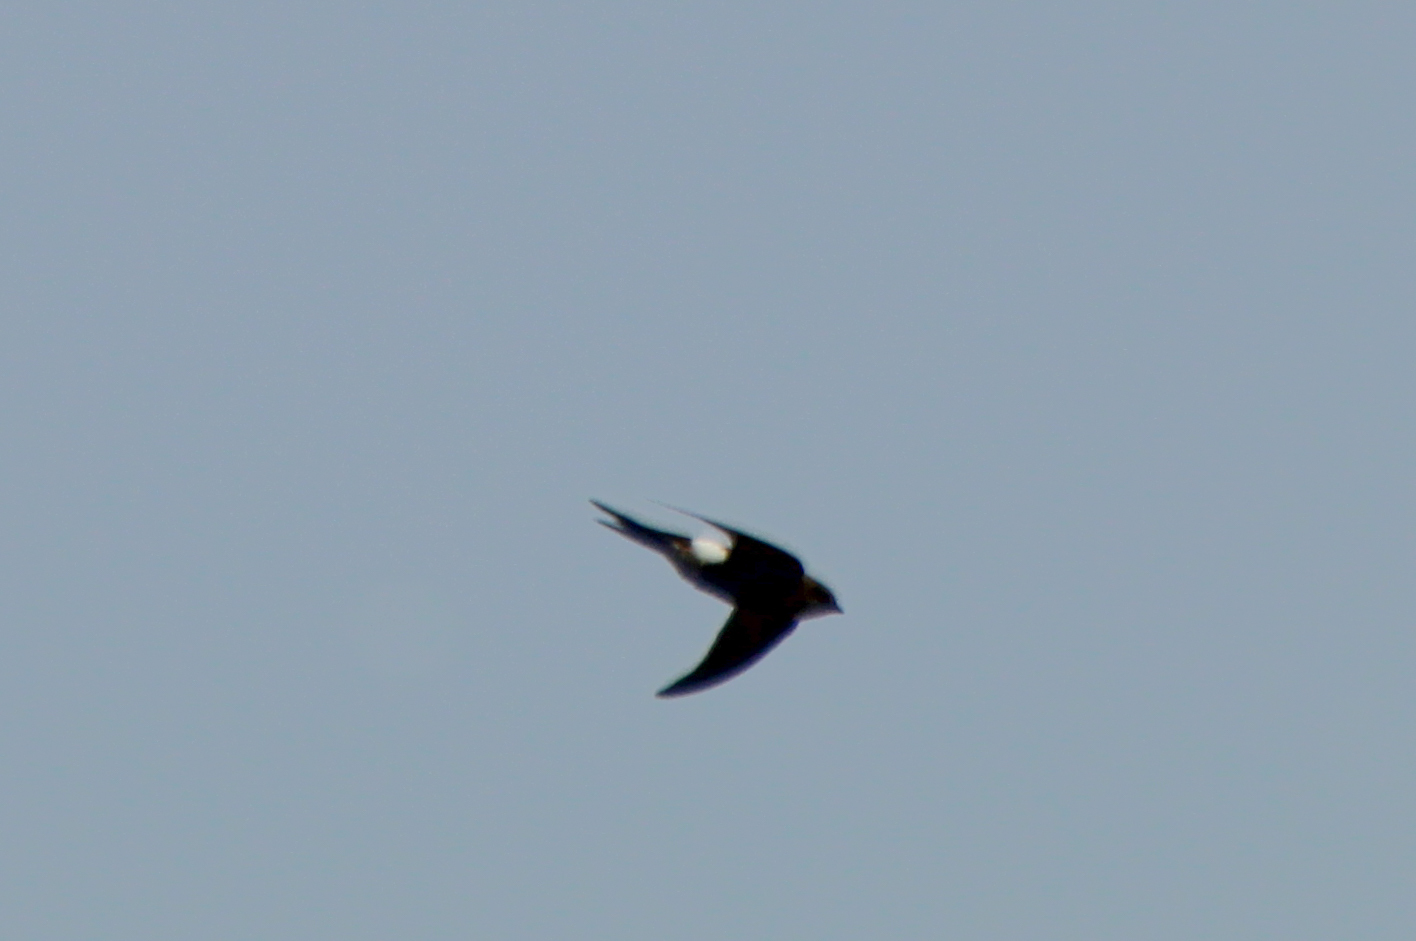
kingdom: Animalia
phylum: Chordata
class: Aves
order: Apodiformes
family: Apodidae
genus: Apus
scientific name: Apus pacificus
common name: Pacific swift
